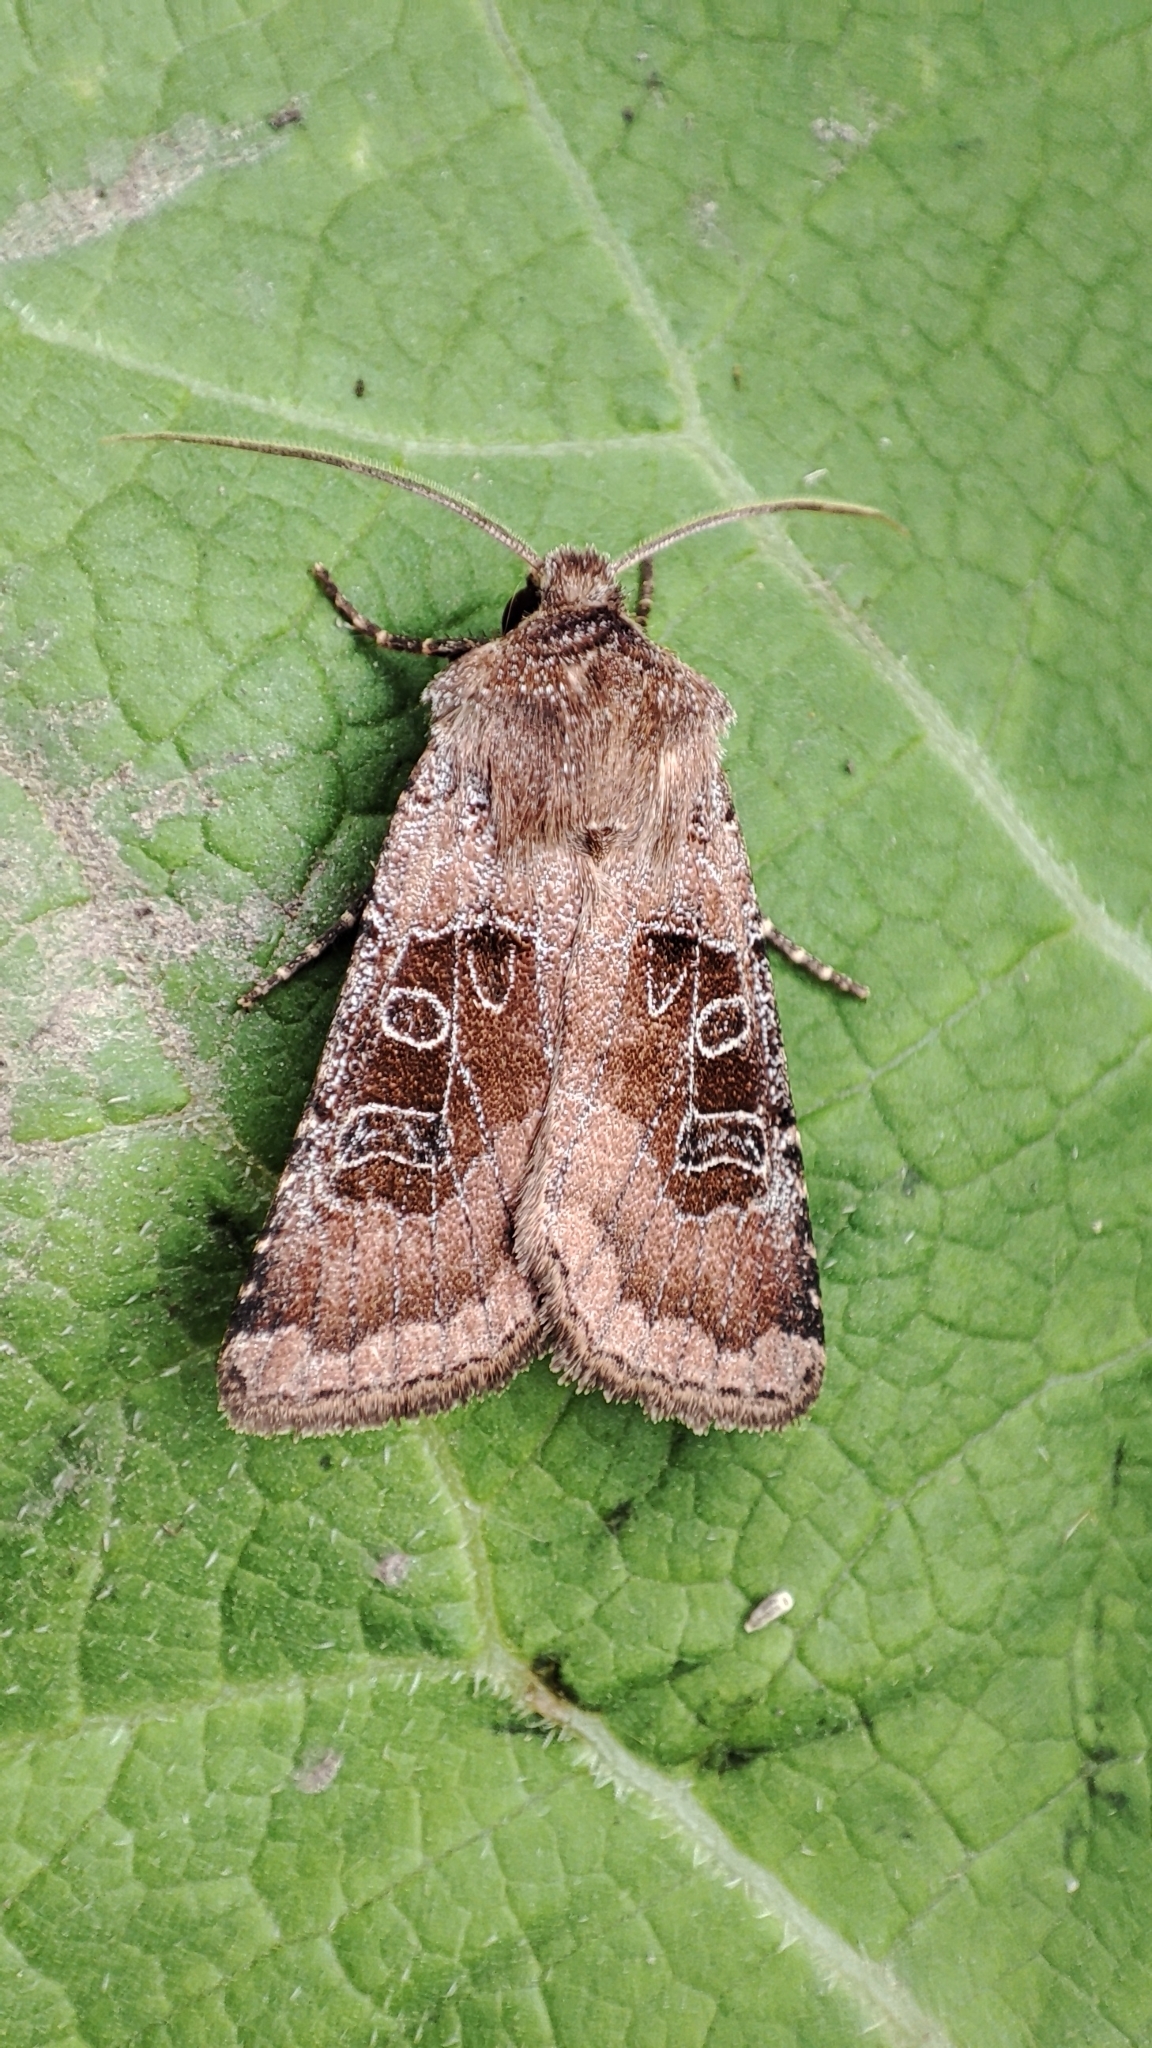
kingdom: Animalia
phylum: Arthropoda
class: Insecta
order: Lepidoptera
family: Noctuidae
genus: Chersotis
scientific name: Chersotis cuprea
